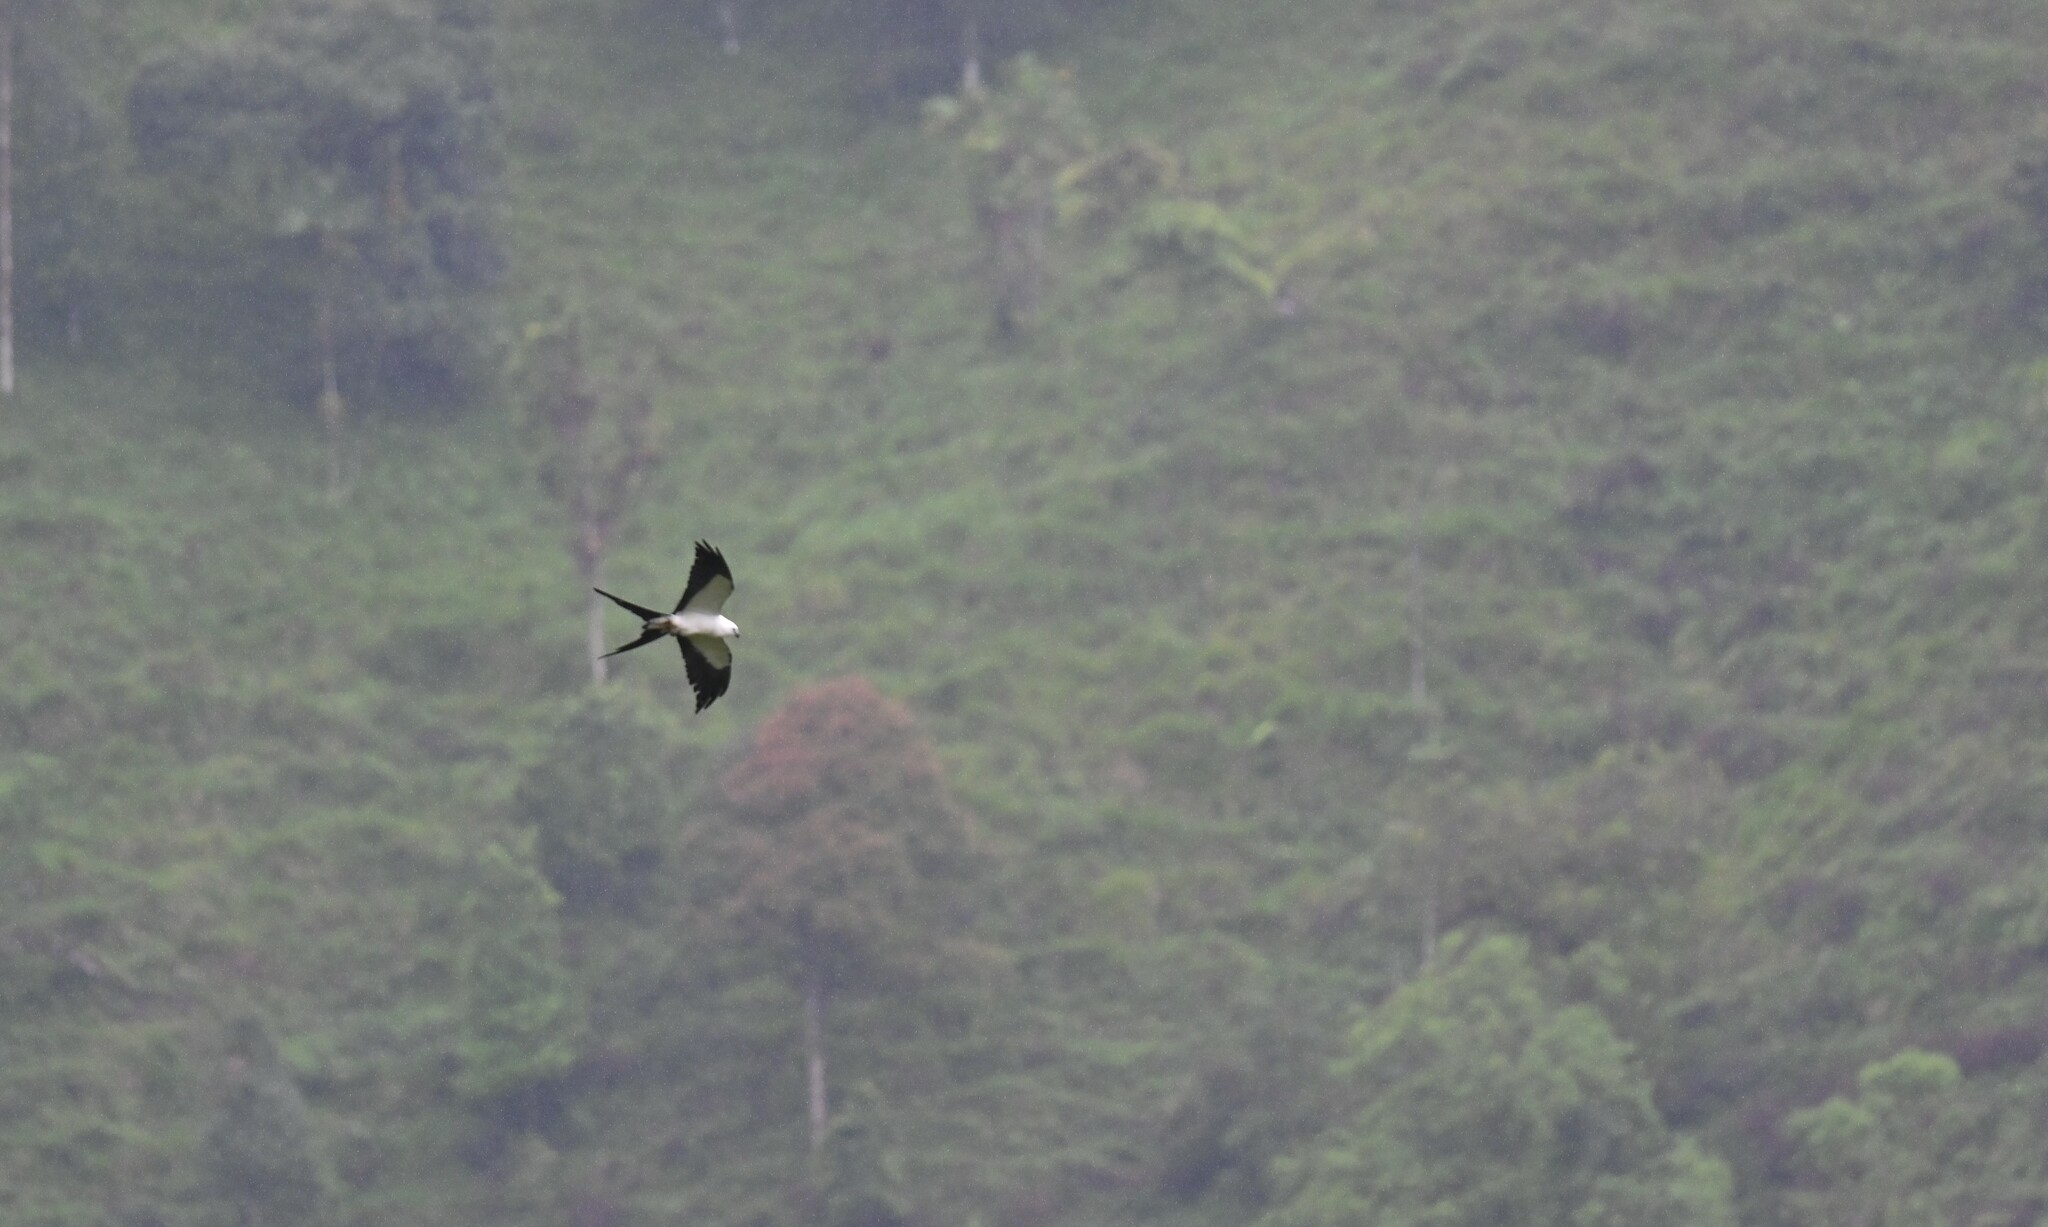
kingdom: Animalia
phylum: Chordata
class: Aves
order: Accipitriformes
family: Accipitridae
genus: Elanoides
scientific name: Elanoides forficatus
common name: Swallow-tailed kite
